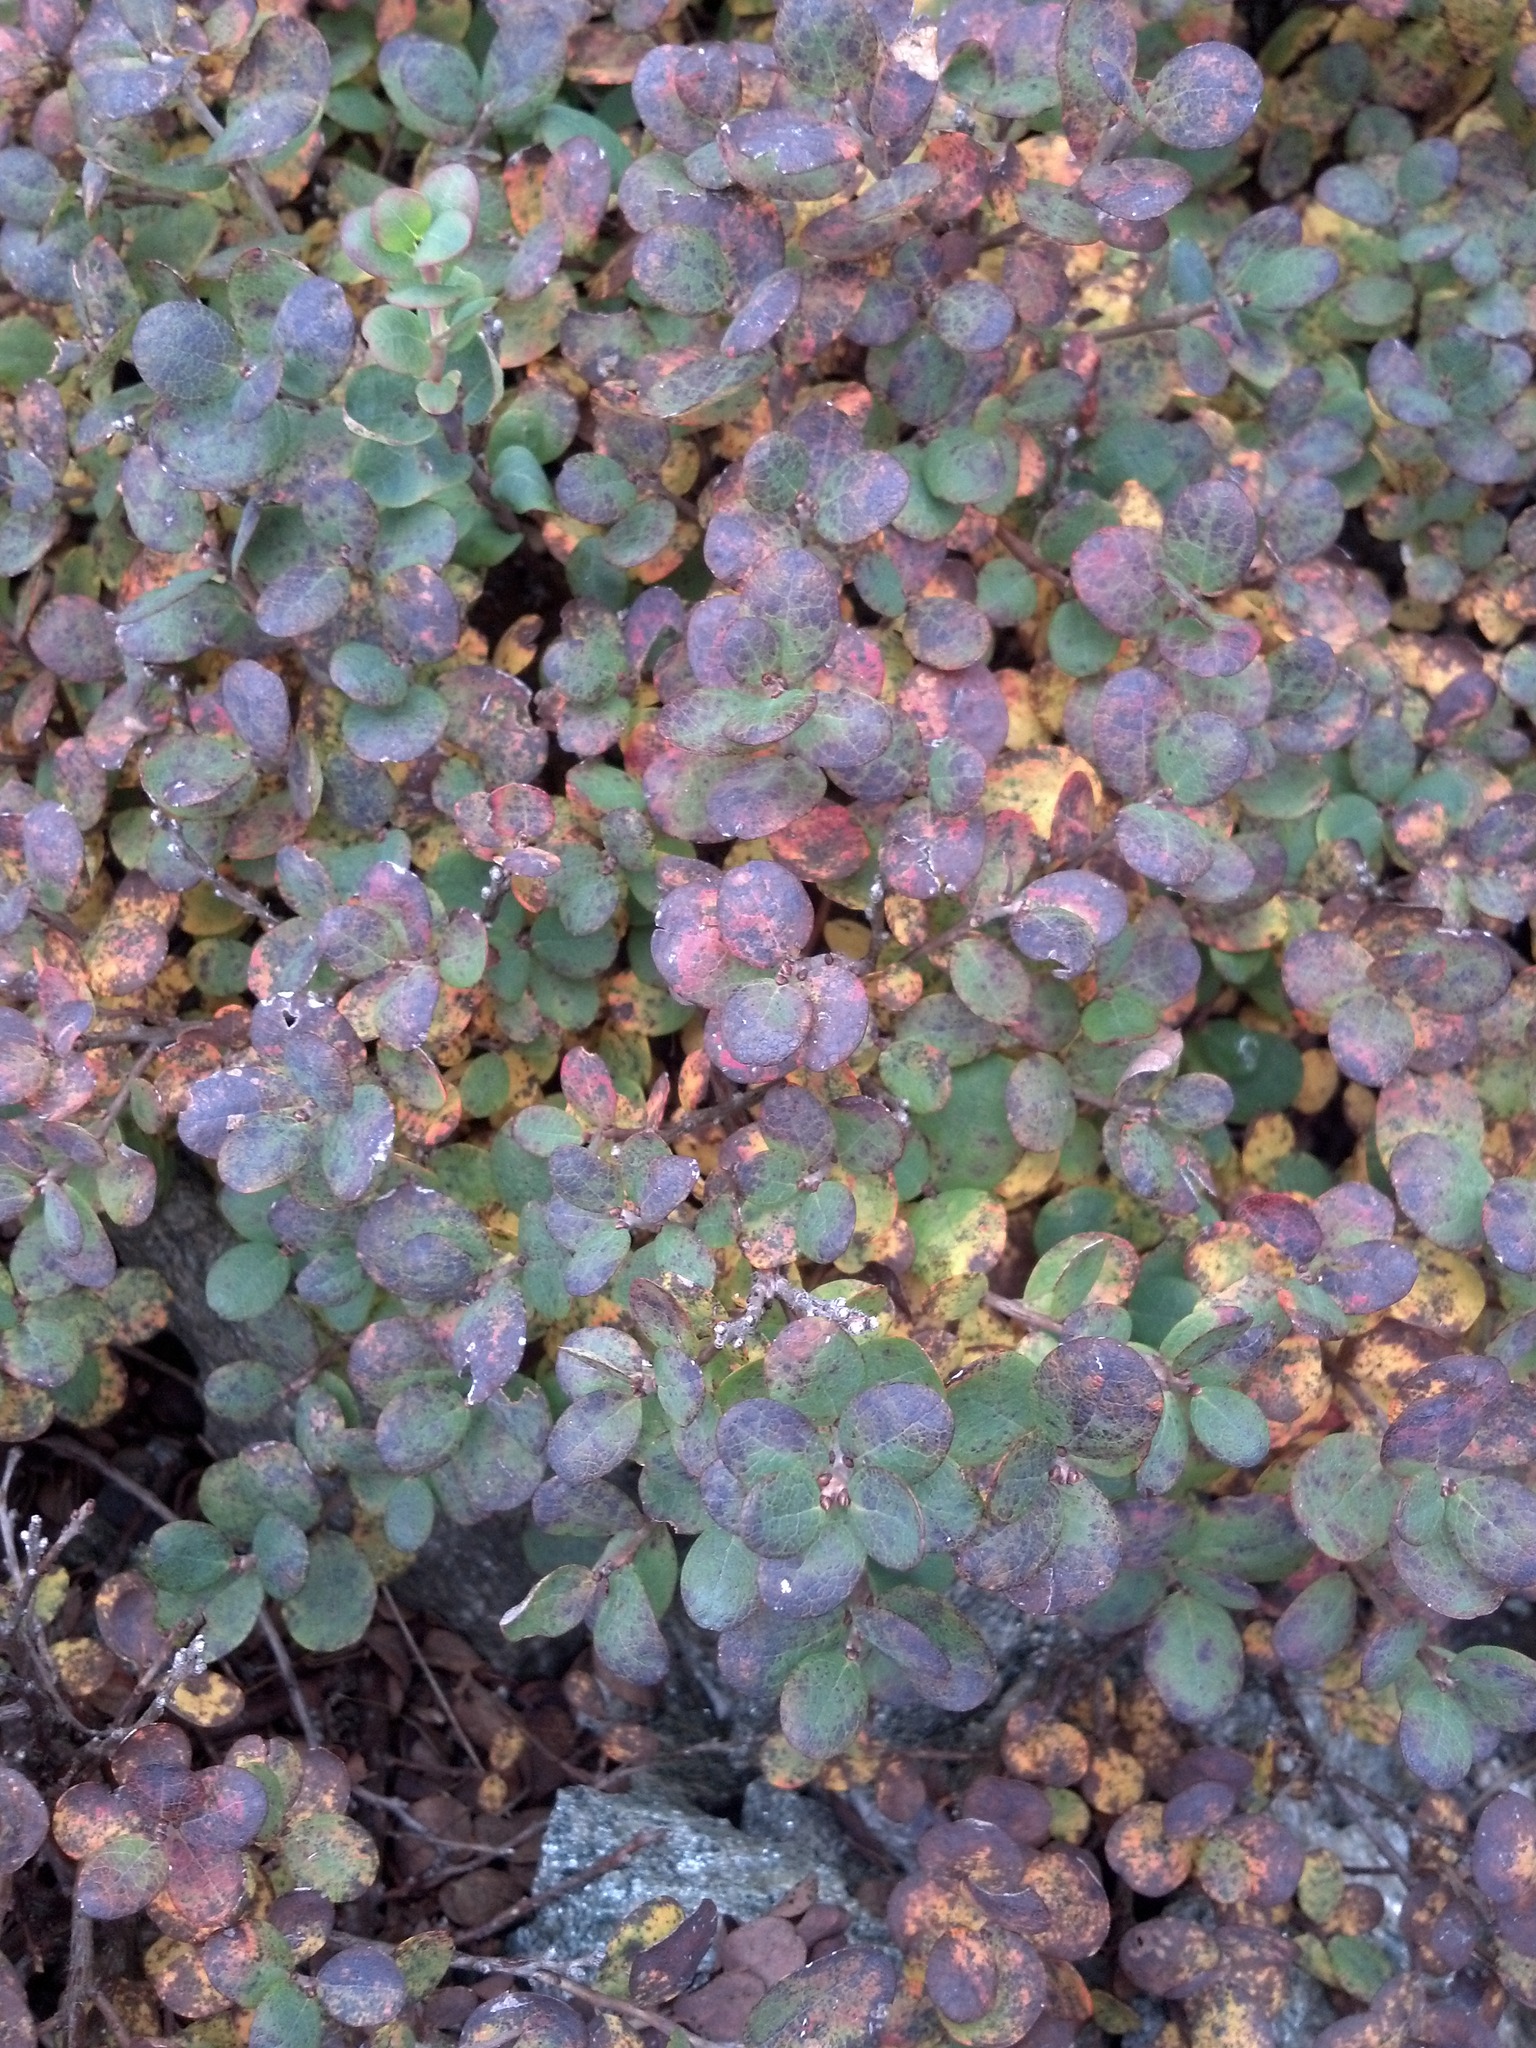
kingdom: Plantae
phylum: Tracheophyta
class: Magnoliopsida
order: Ericales
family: Ericaceae
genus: Vaccinium
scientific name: Vaccinium uliginosum
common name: Bog bilberry
